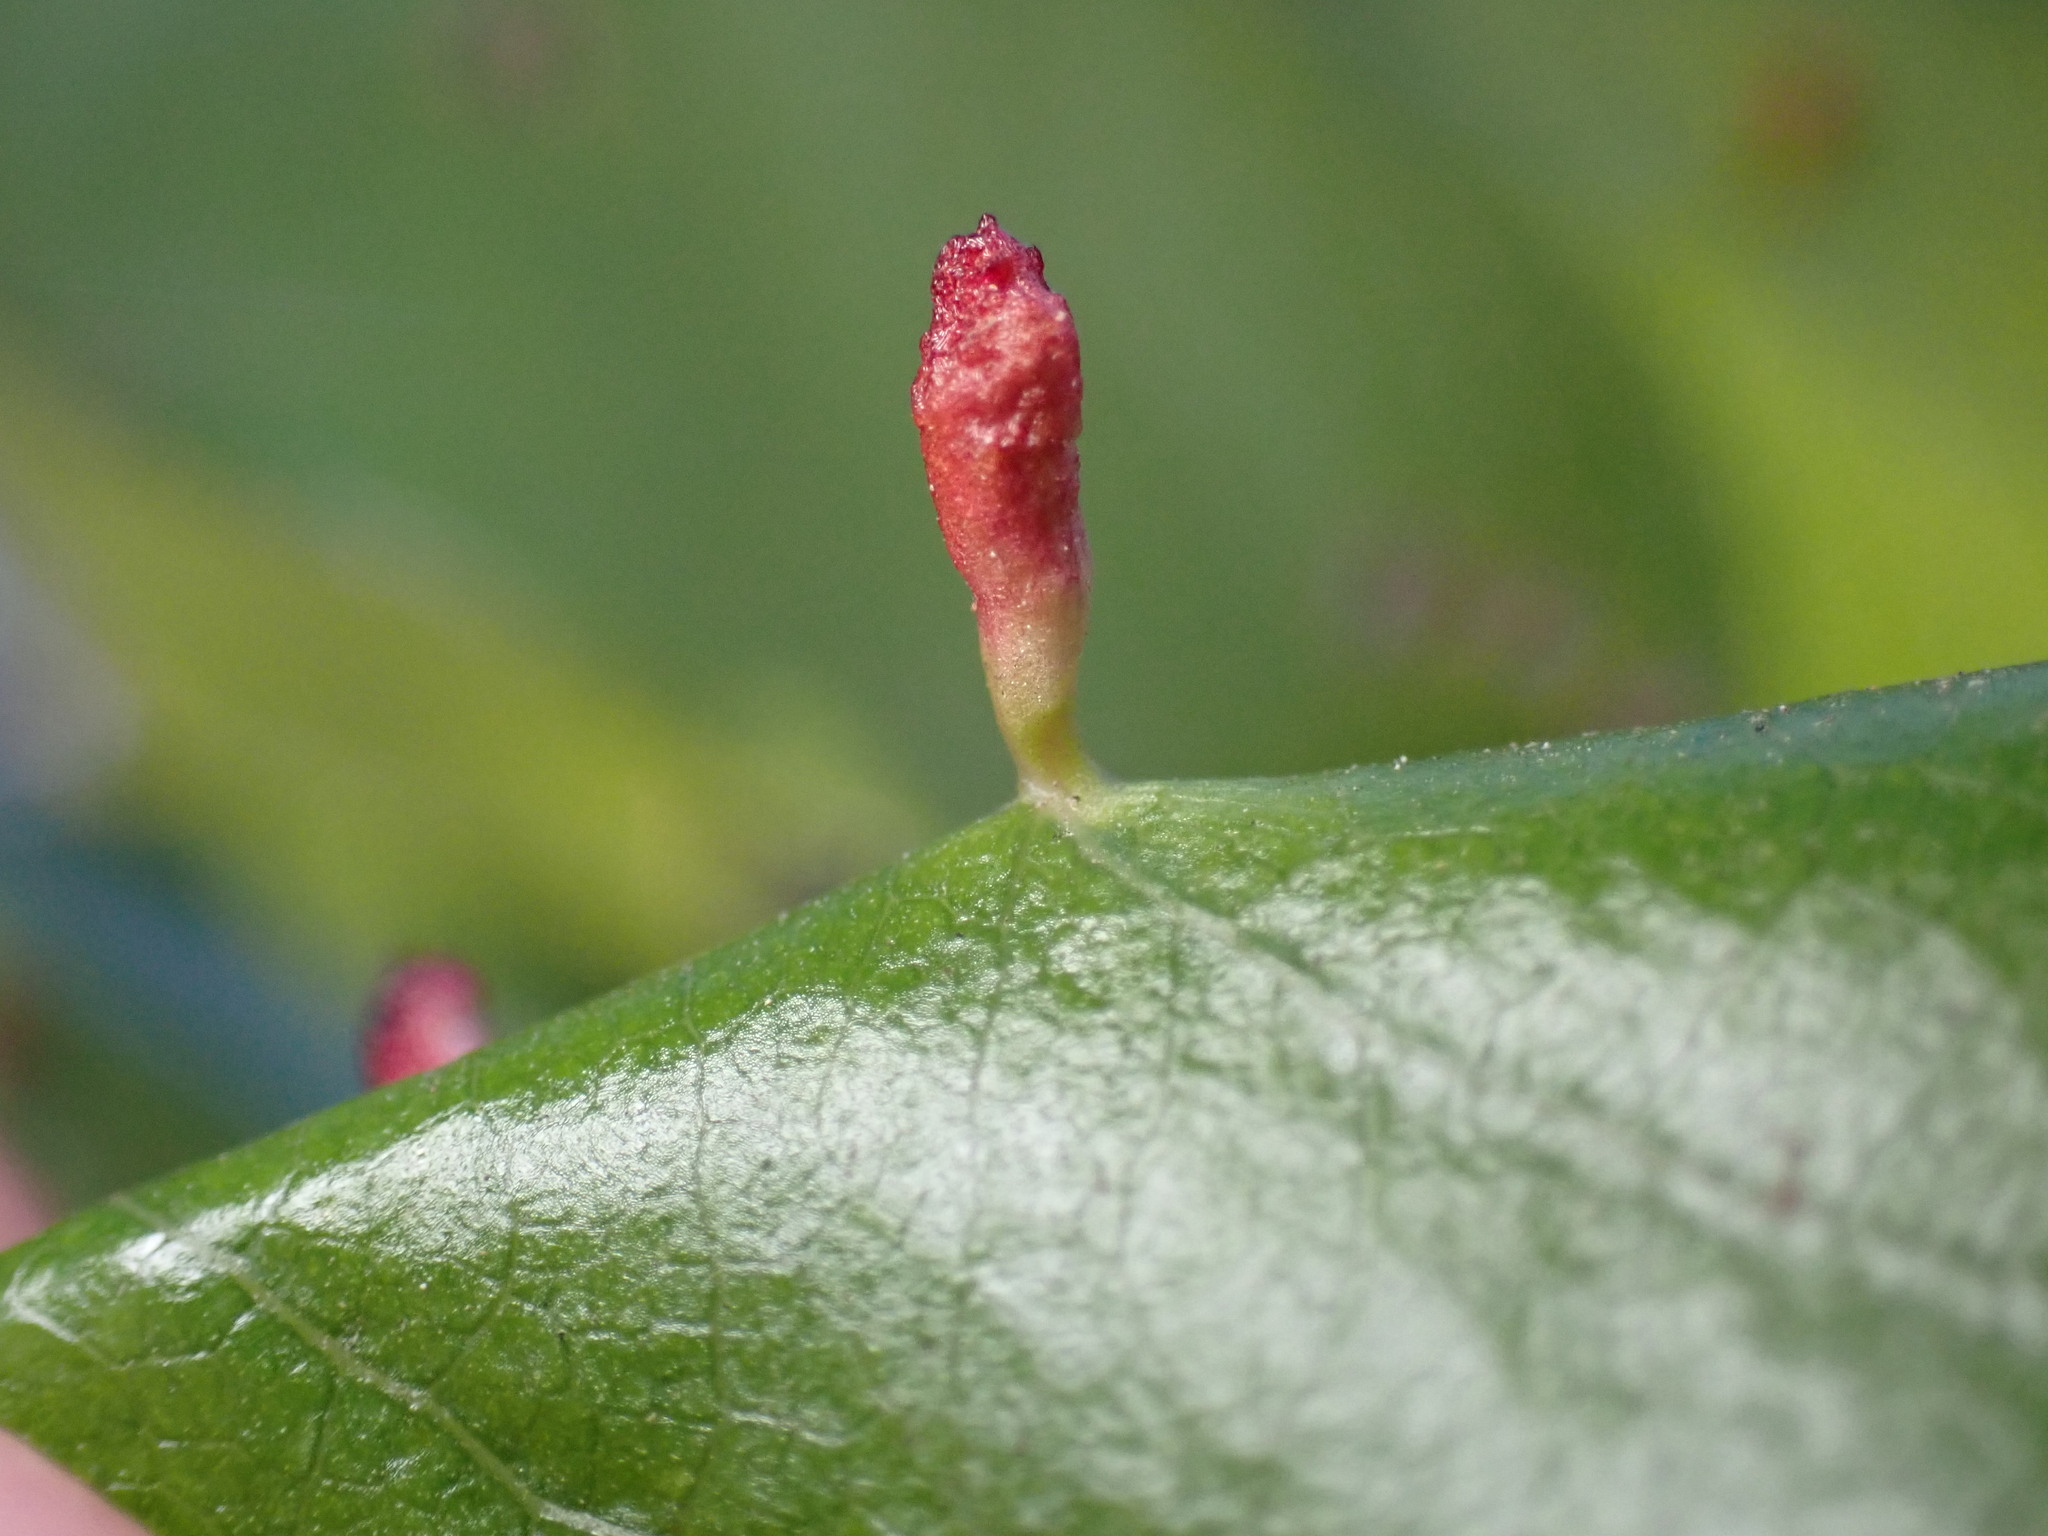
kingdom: Animalia
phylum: Arthropoda
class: Arachnida
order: Trombidiformes
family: Eriophyidae
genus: Eriophyes
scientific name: Eriophyes emarginatae
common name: Plum leaf gall mite
